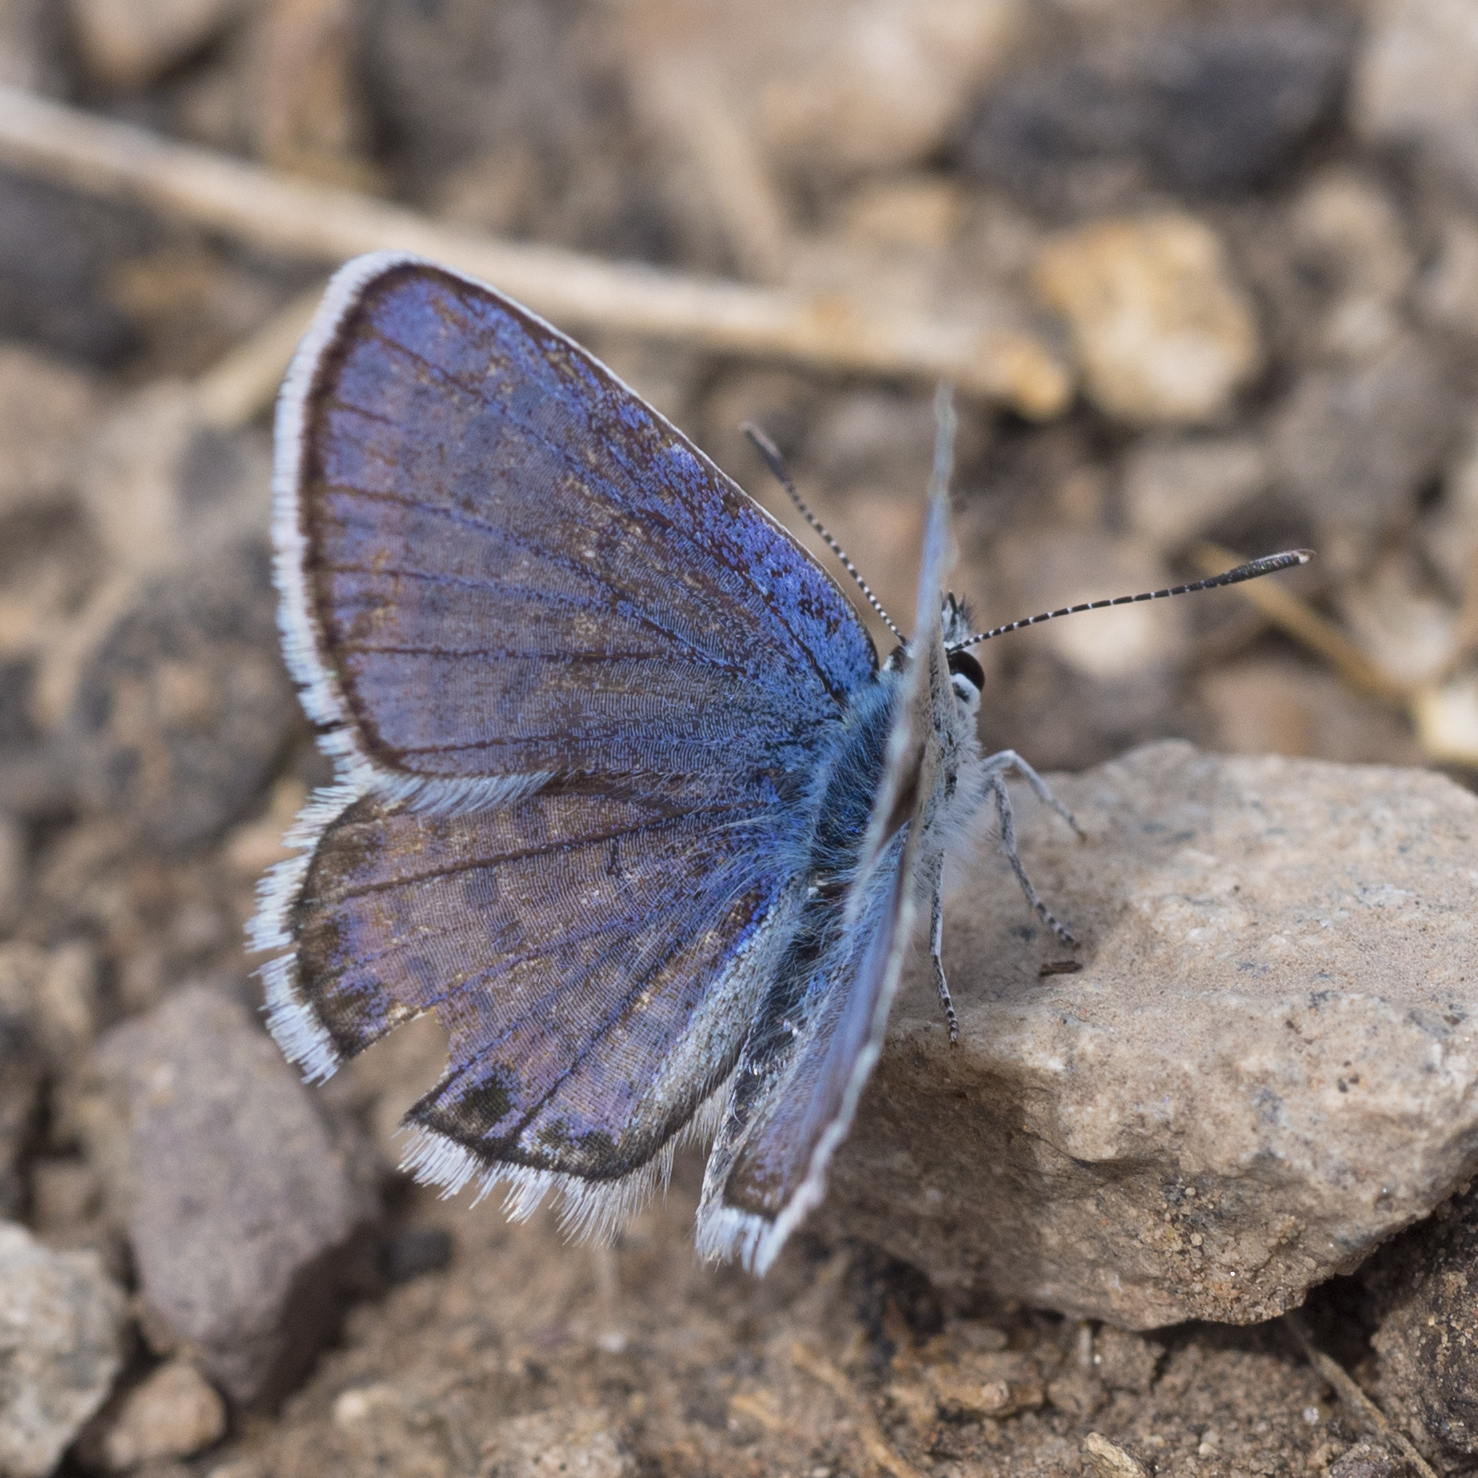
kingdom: Animalia
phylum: Arthropoda
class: Insecta
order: Lepidoptera
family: Lycaenidae
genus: Lycaeides
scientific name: Lycaeides melissa
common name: Melissa blue
